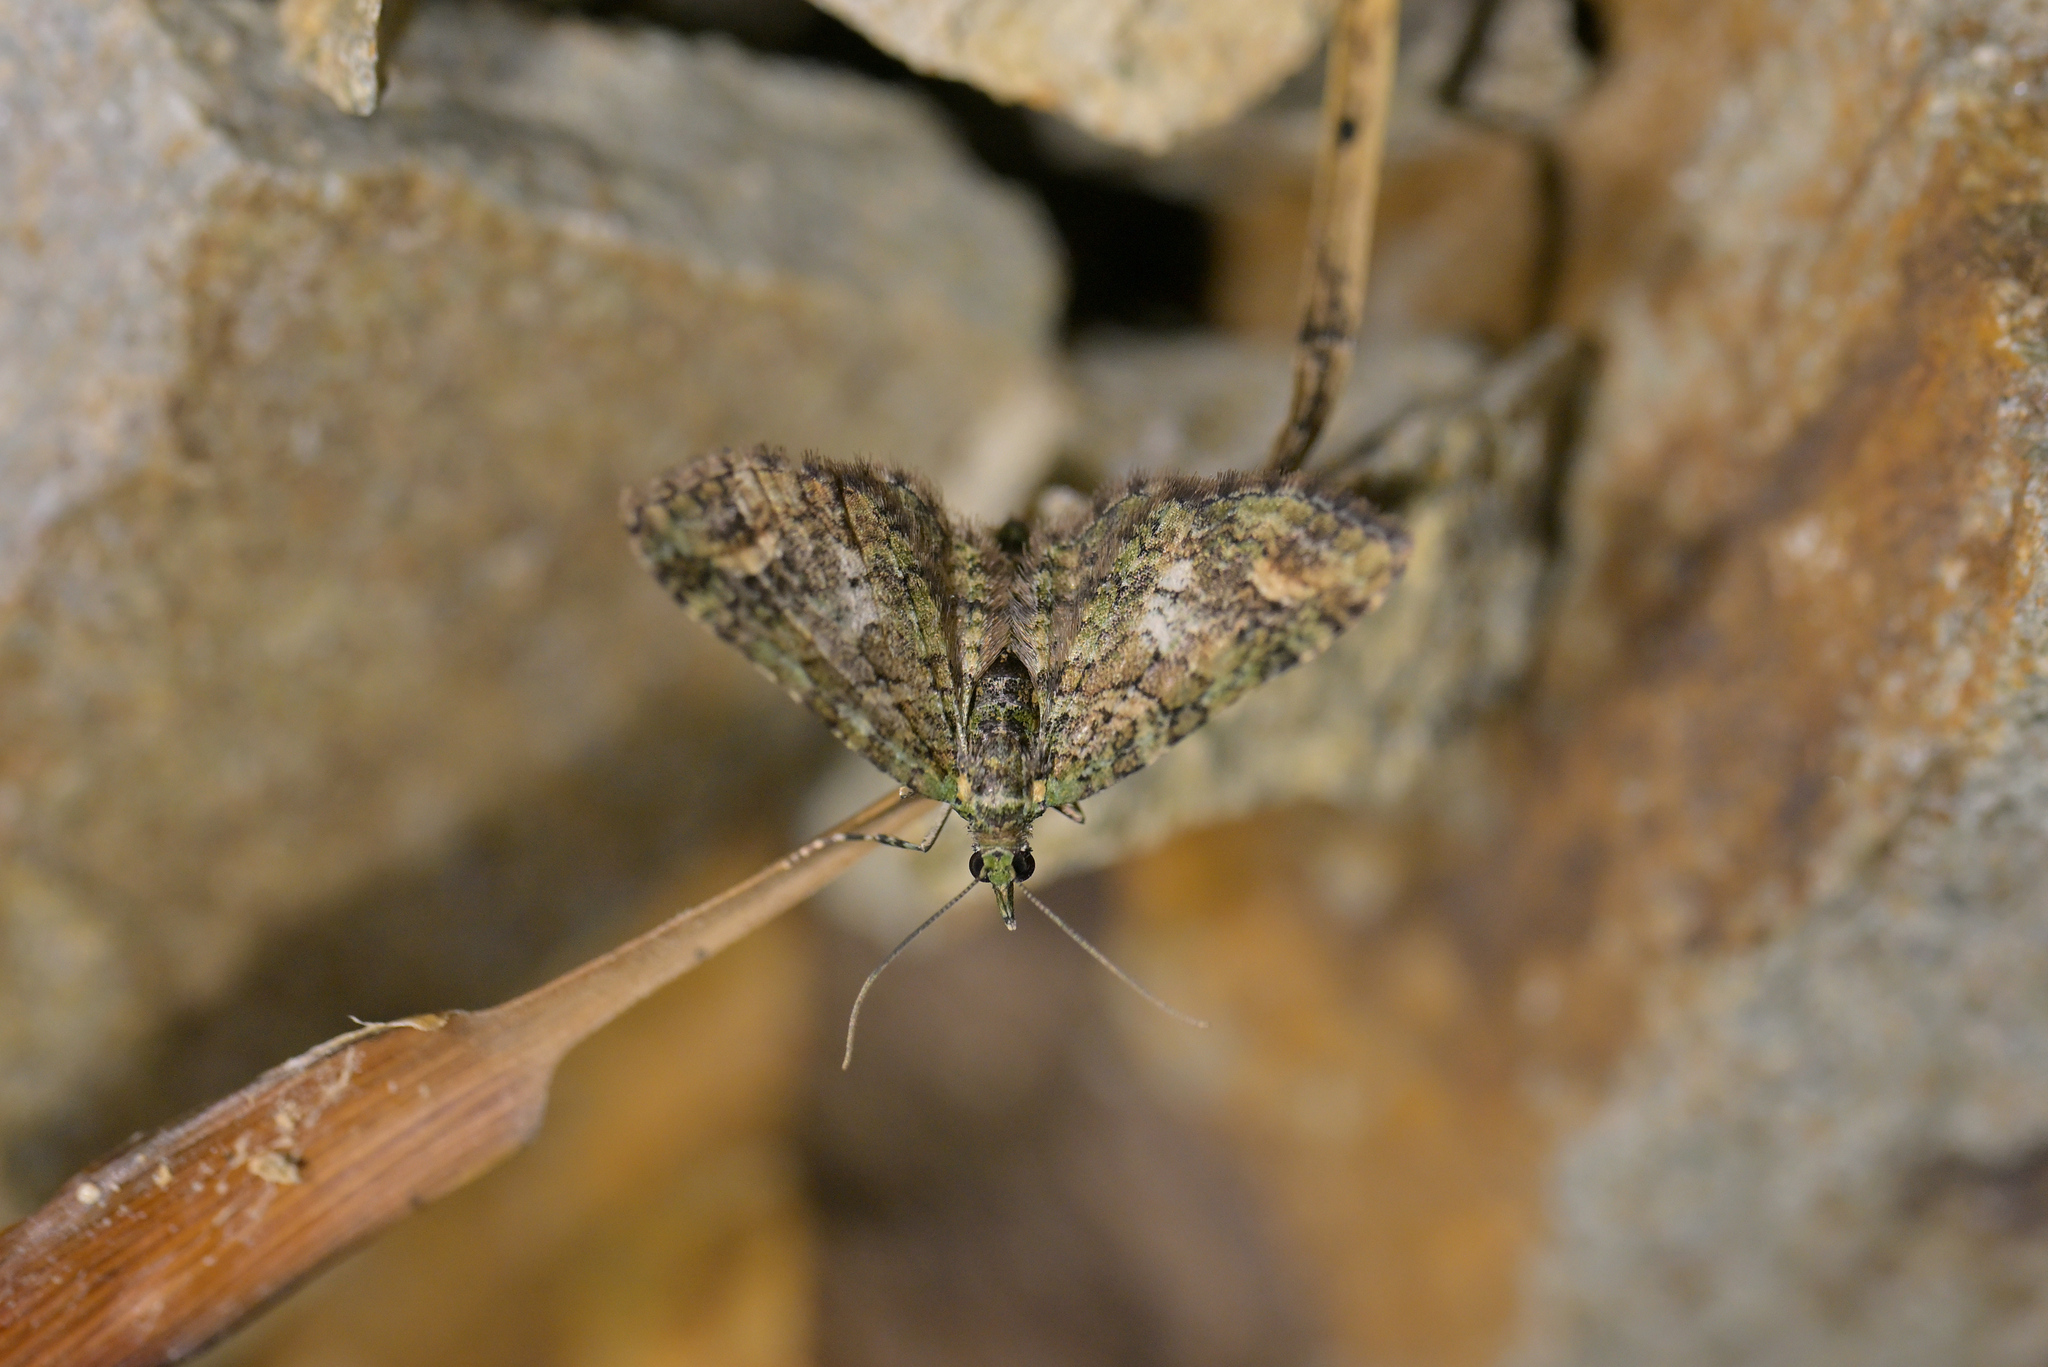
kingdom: Animalia
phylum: Arthropoda
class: Insecta
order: Lepidoptera
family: Geometridae
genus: Idaea
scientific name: Idaea mutanda
